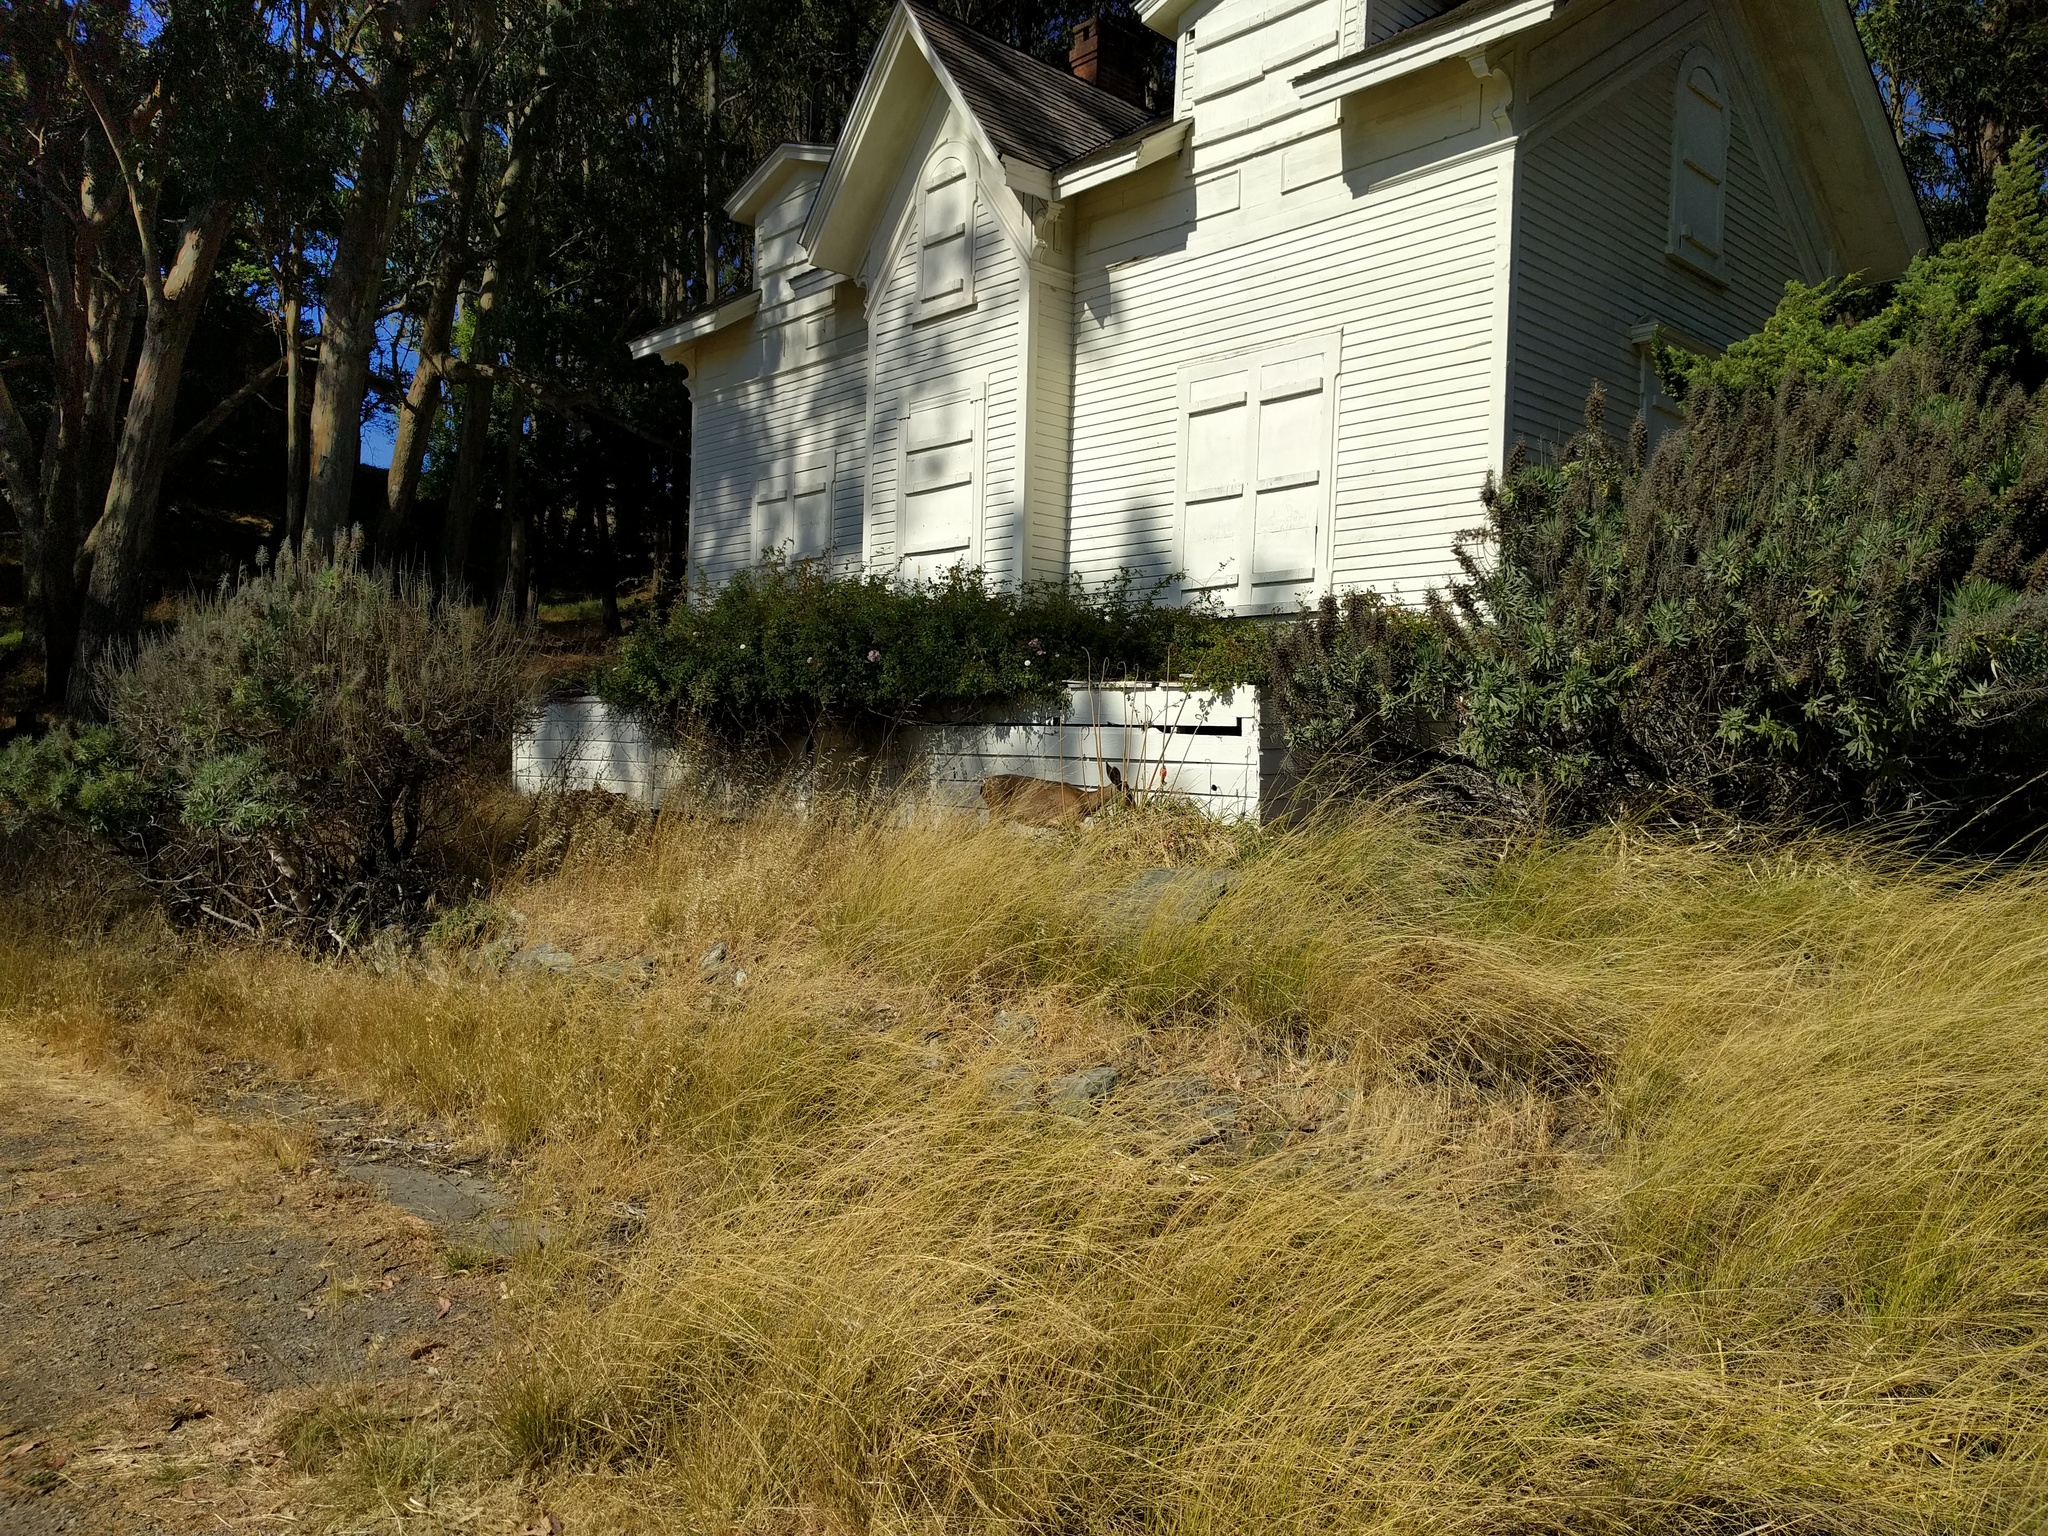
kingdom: Animalia
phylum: Chordata
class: Mammalia
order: Artiodactyla
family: Cervidae
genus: Odocoileus
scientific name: Odocoileus hemionus
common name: Mule deer
